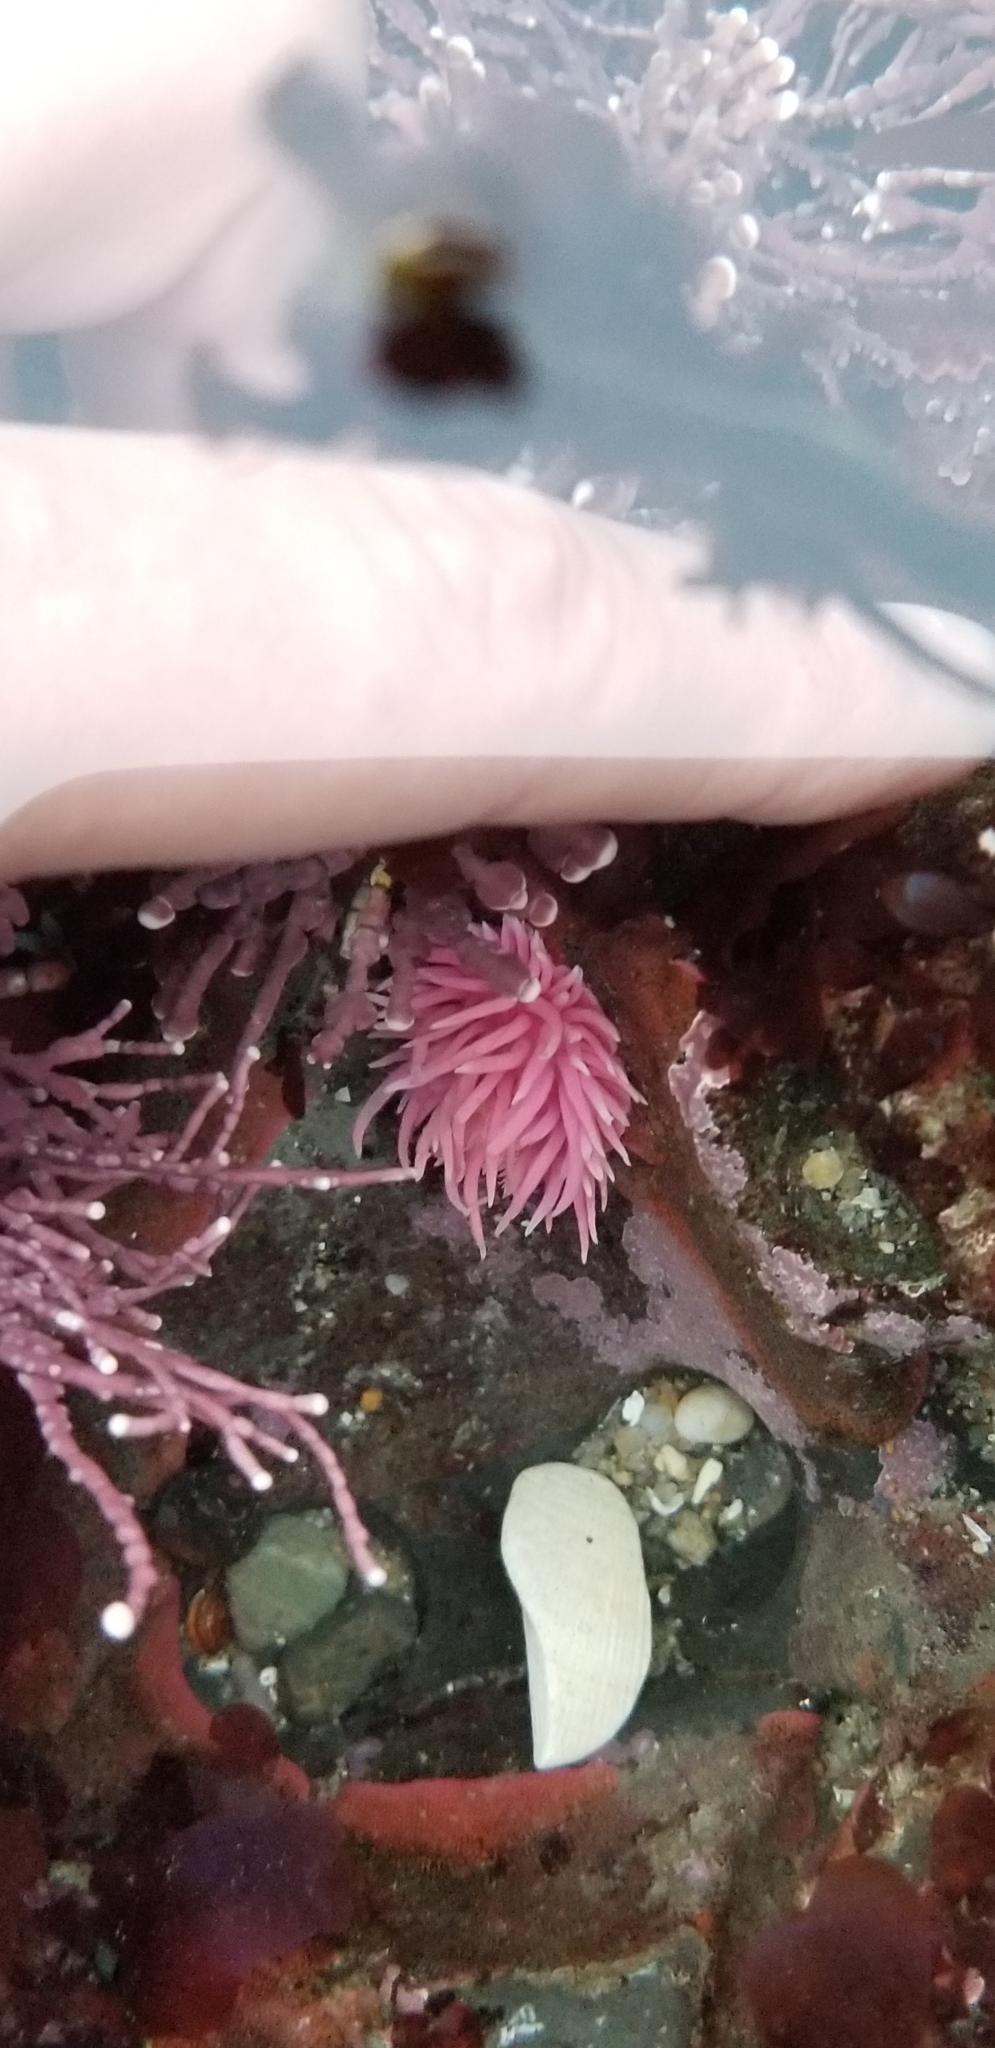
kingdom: Animalia
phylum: Mollusca
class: Gastropoda
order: Nudibranchia
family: Goniodorididae
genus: Okenia
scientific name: Okenia
